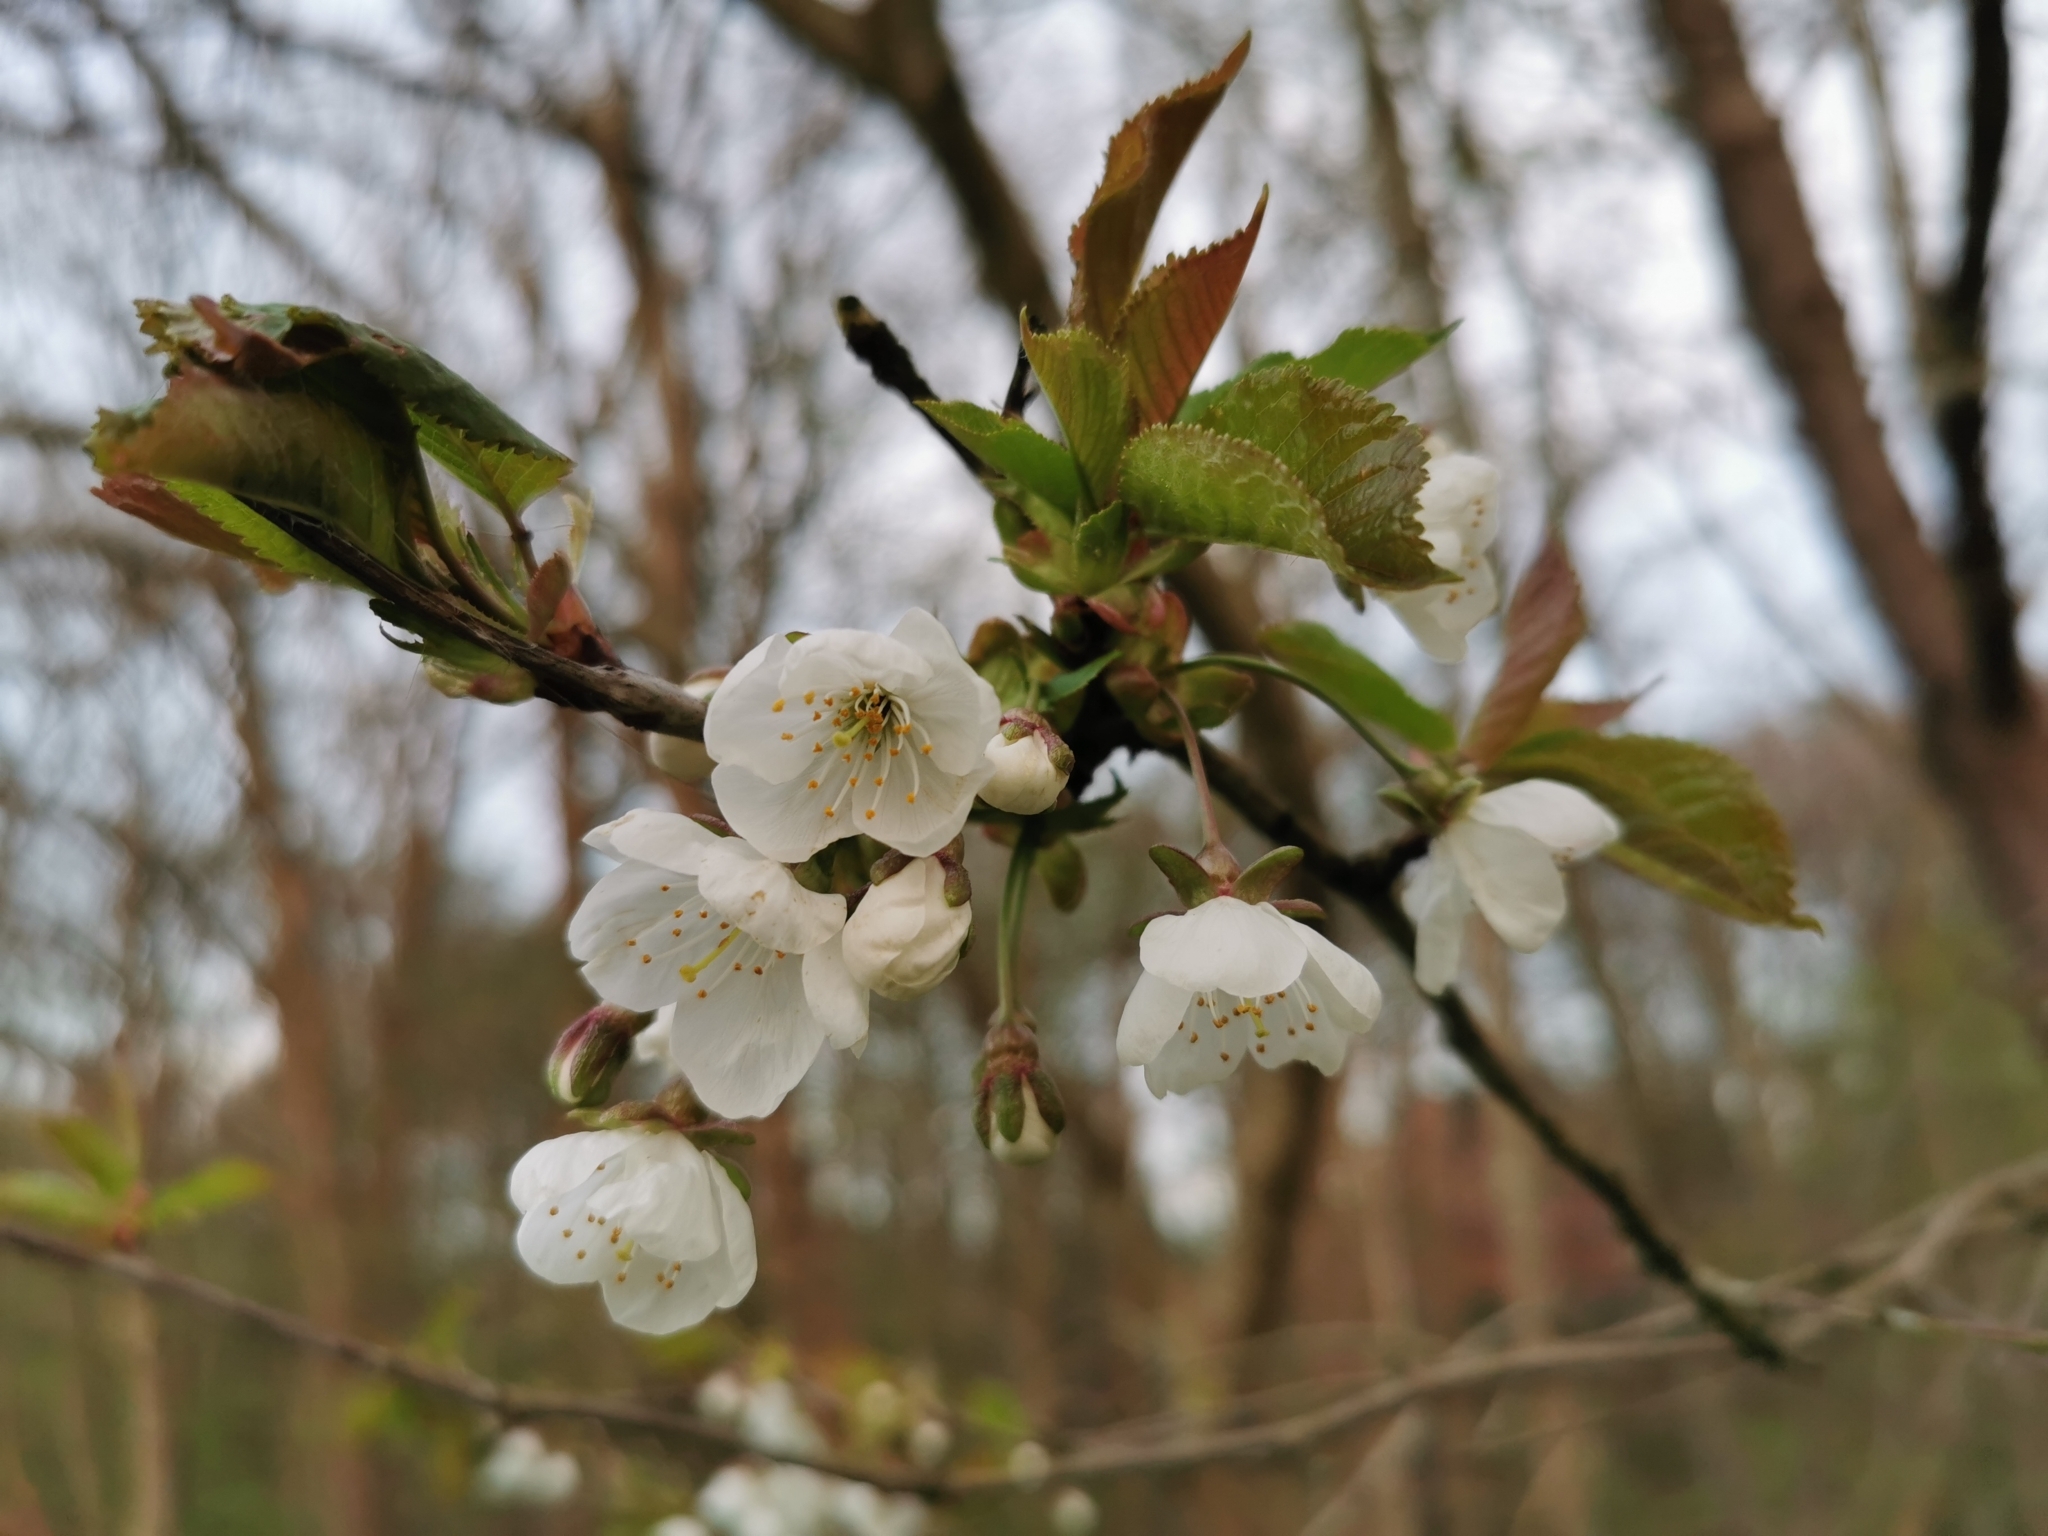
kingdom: Plantae
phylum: Tracheophyta
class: Magnoliopsida
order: Rosales
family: Rosaceae
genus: Prunus
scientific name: Prunus avium
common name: Sweet cherry
